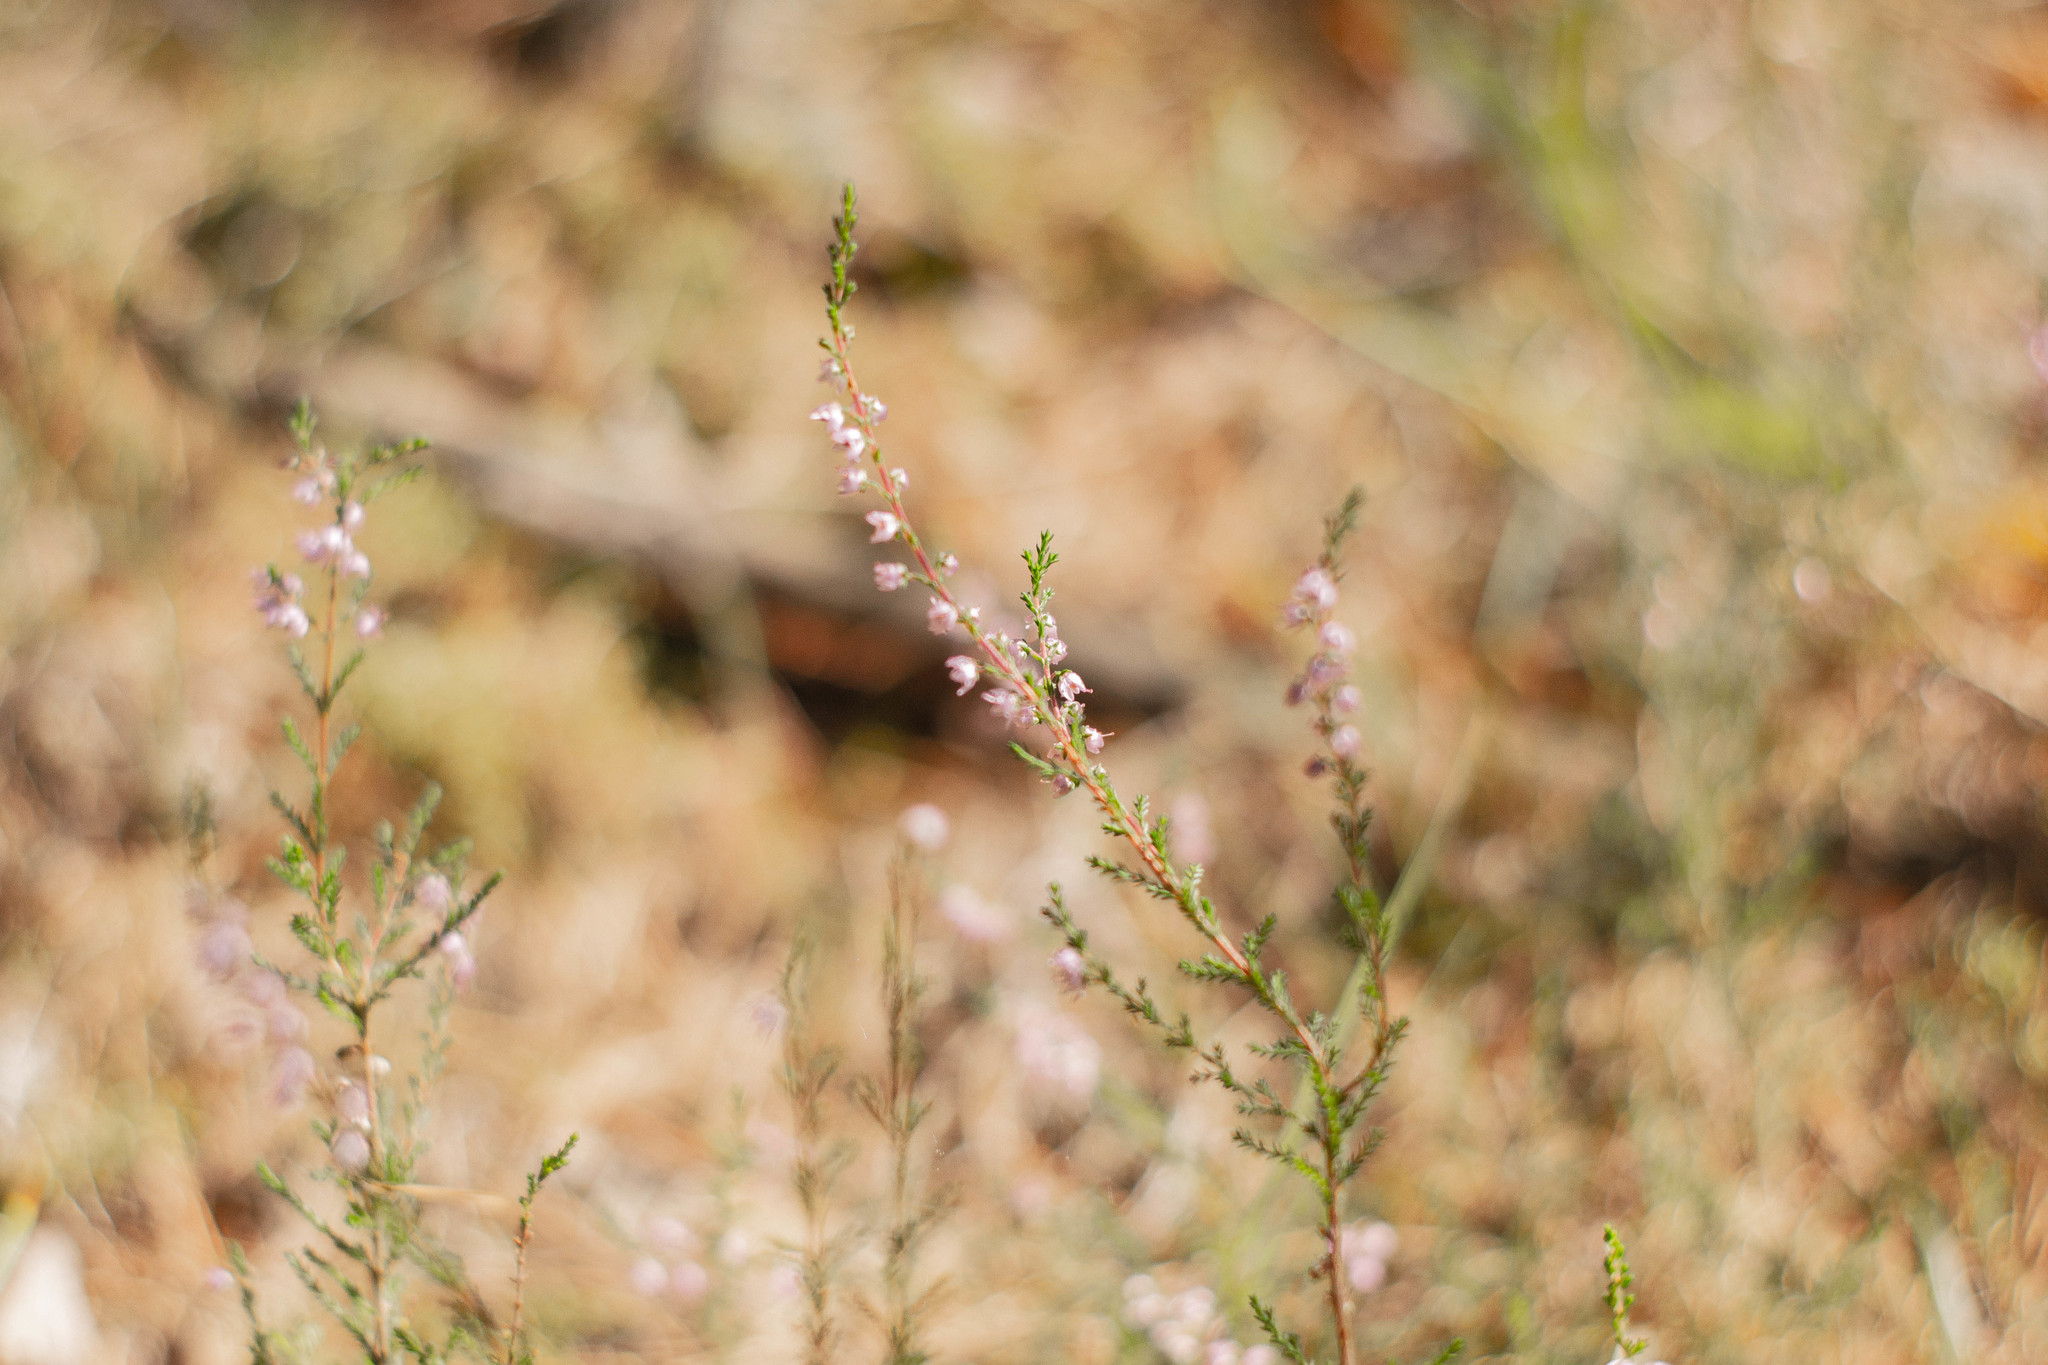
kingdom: Plantae
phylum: Tracheophyta
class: Magnoliopsida
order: Ericales
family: Ericaceae
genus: Calluna
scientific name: Calluna vulgaris
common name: Heather
